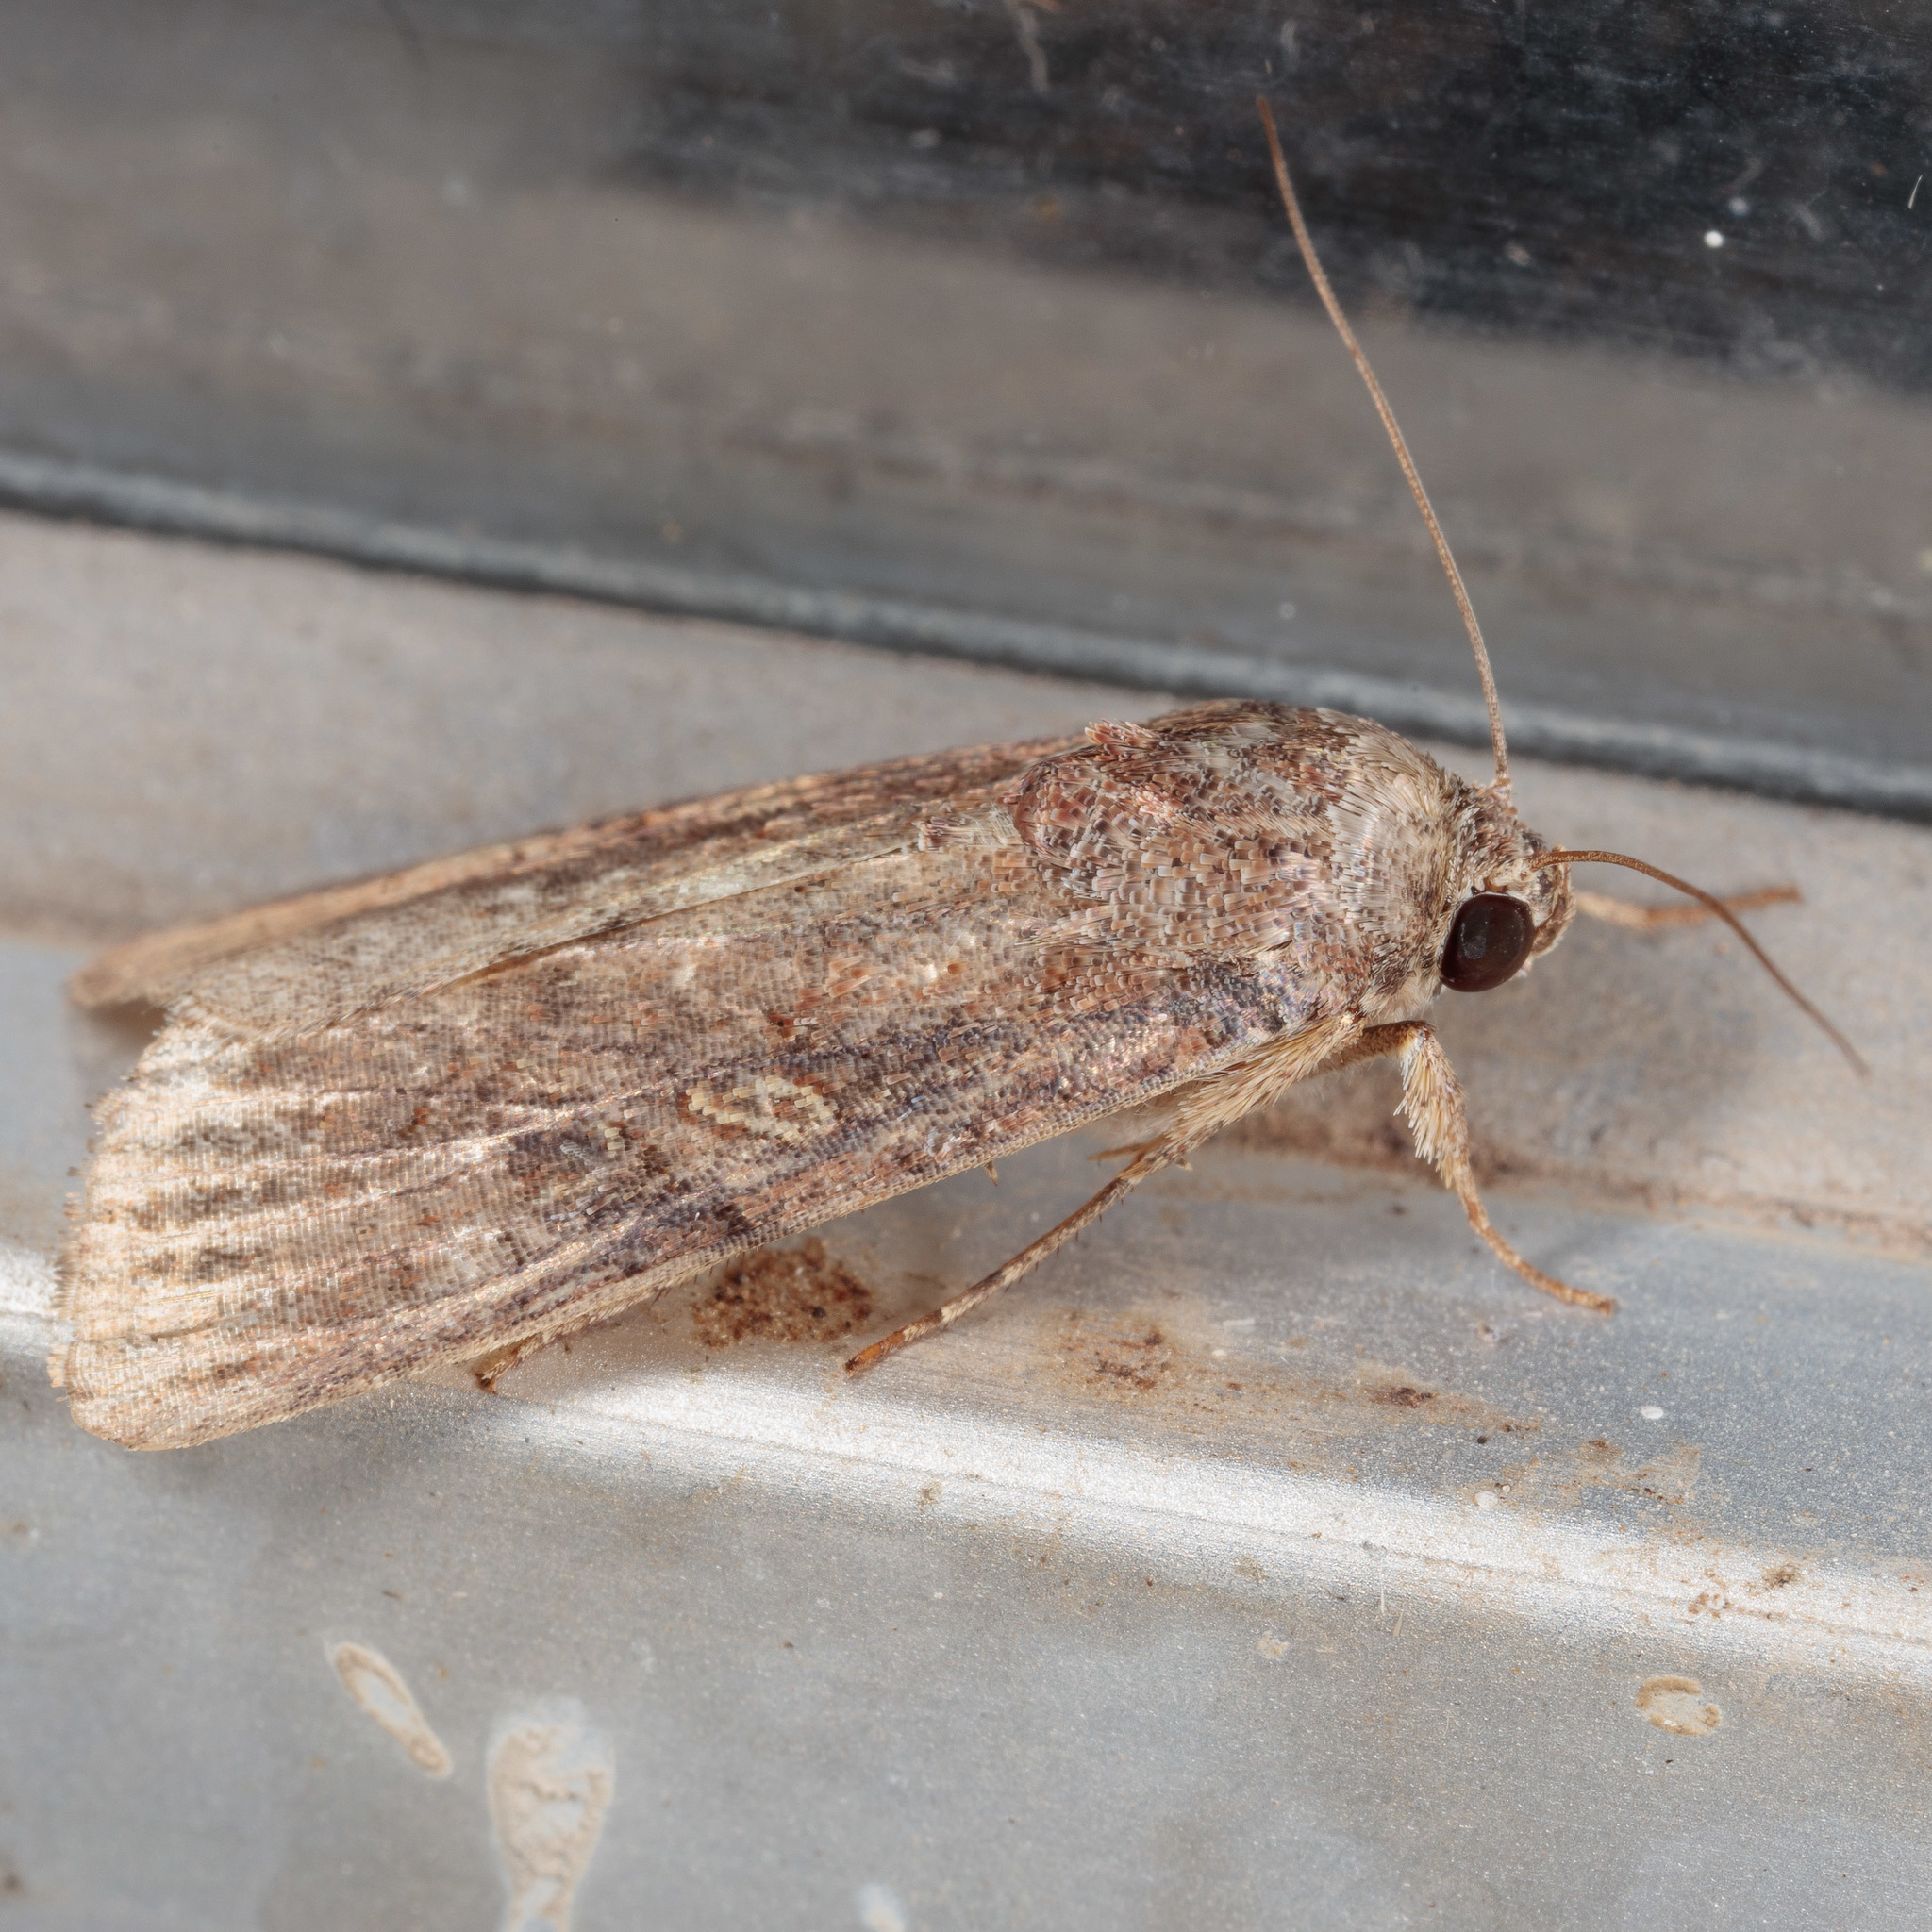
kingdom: Animalia
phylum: Arthropoda
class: Insecta
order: Lepidoptera
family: Noctuidae
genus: Spodoptera
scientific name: Spodoptera frugiperda
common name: Fall armyworm
